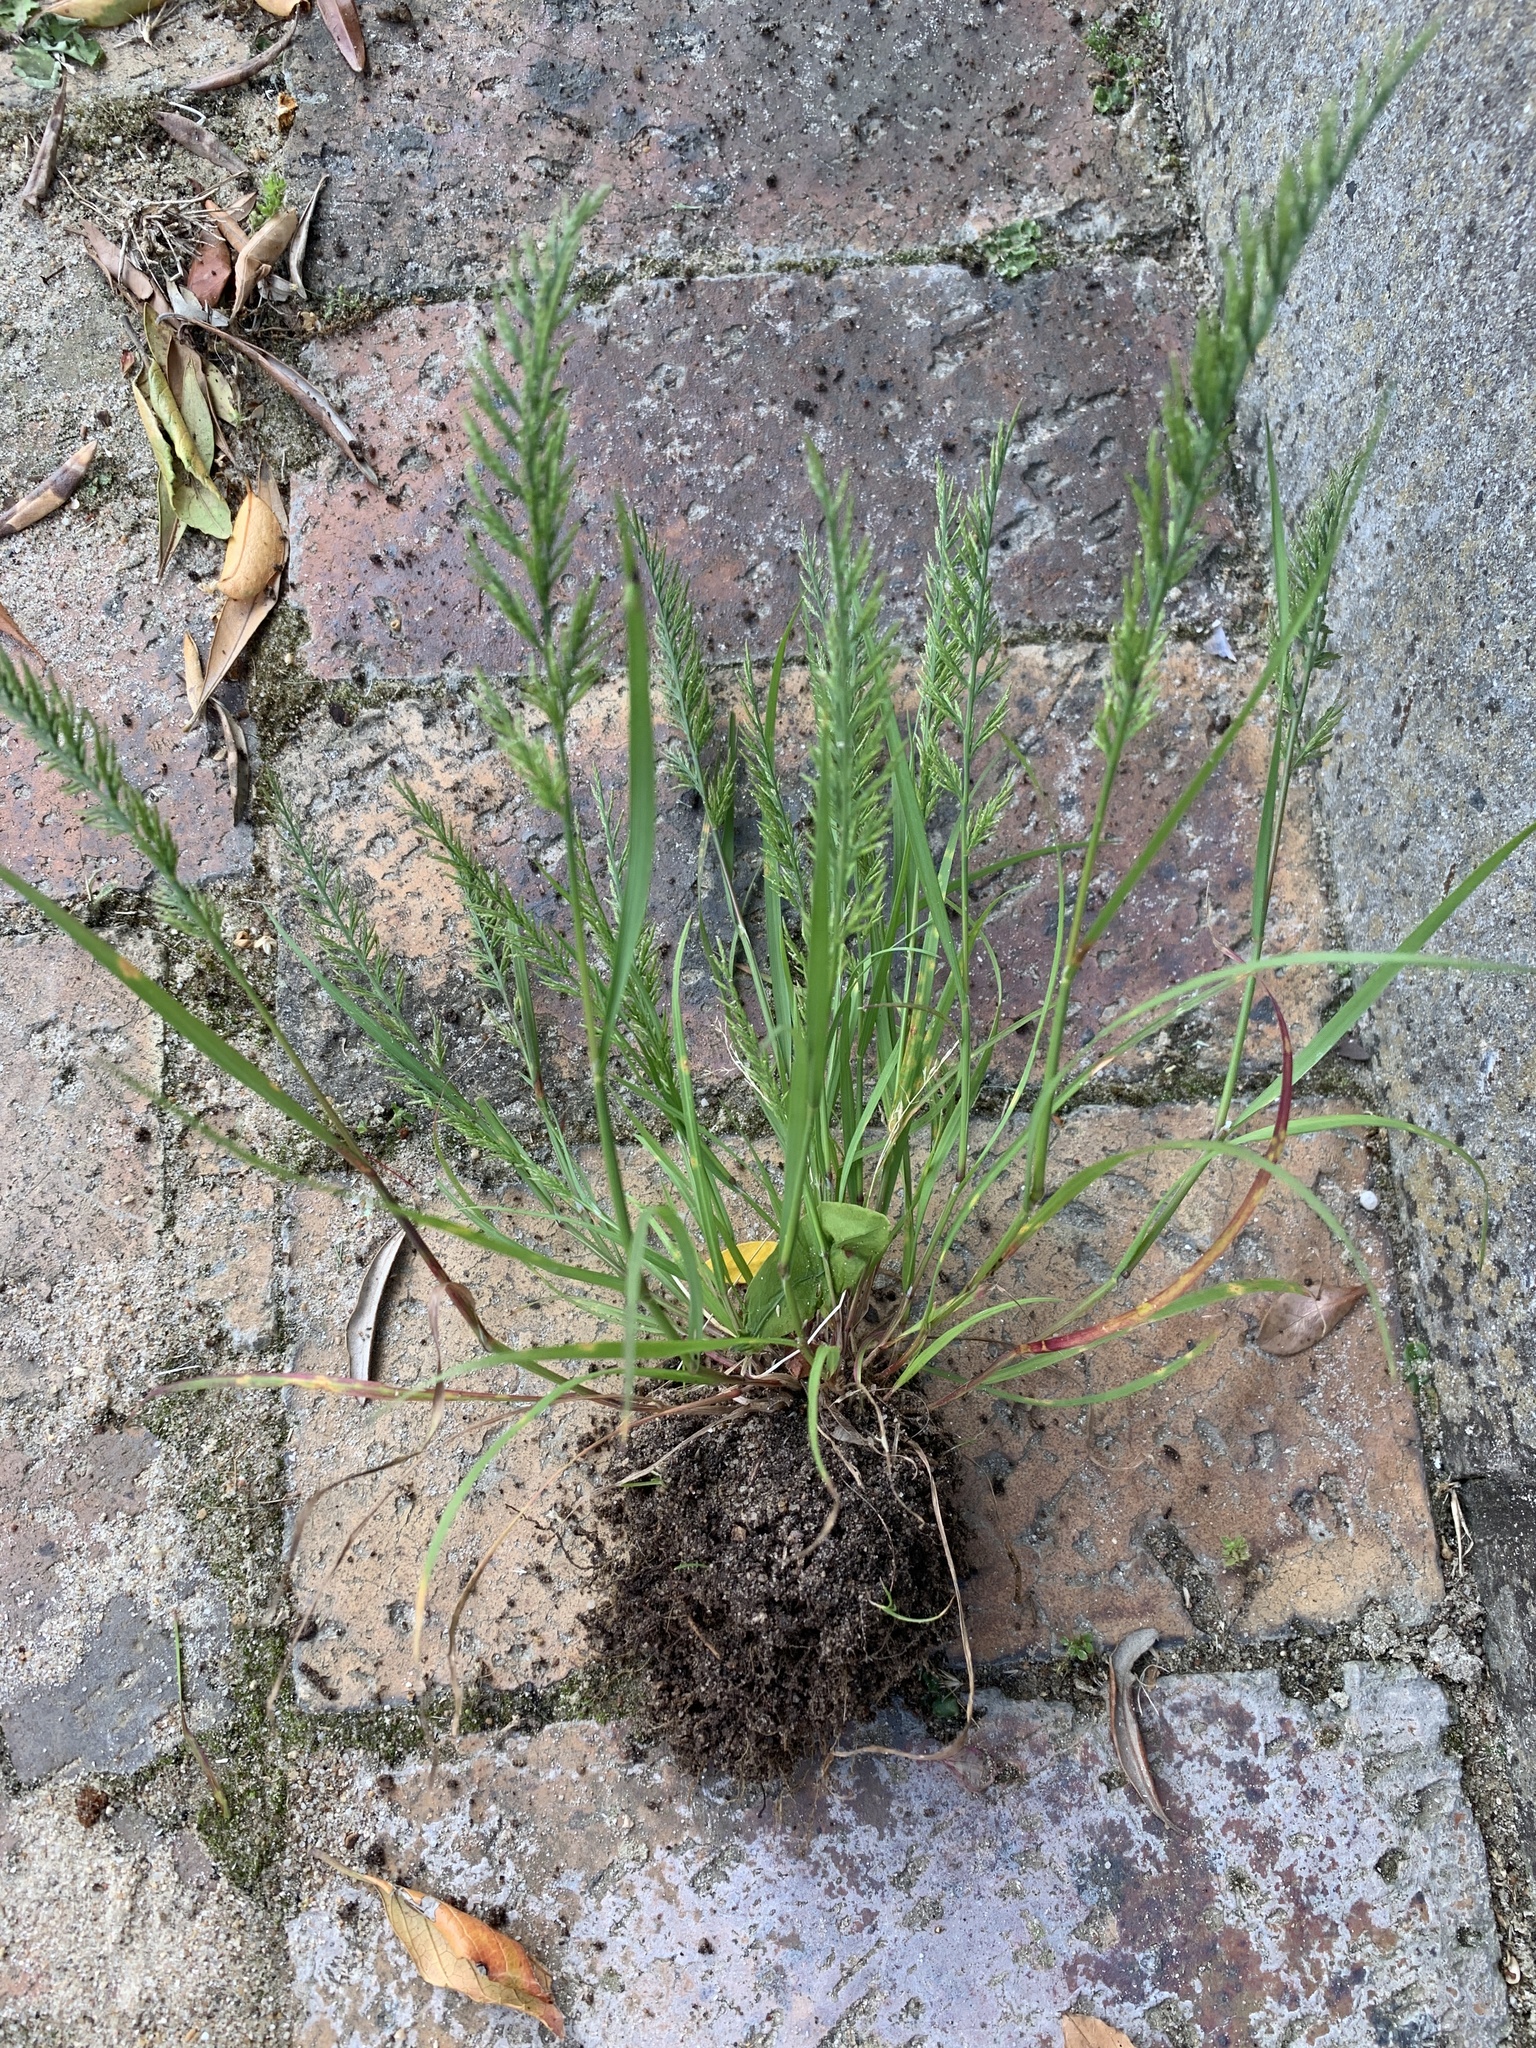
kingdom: Plantae
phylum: Tracheophyta
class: Liliopsida
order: Poales
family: Poaceae
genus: Catapodium
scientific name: Catapodium rigidum
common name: Fern-grass
